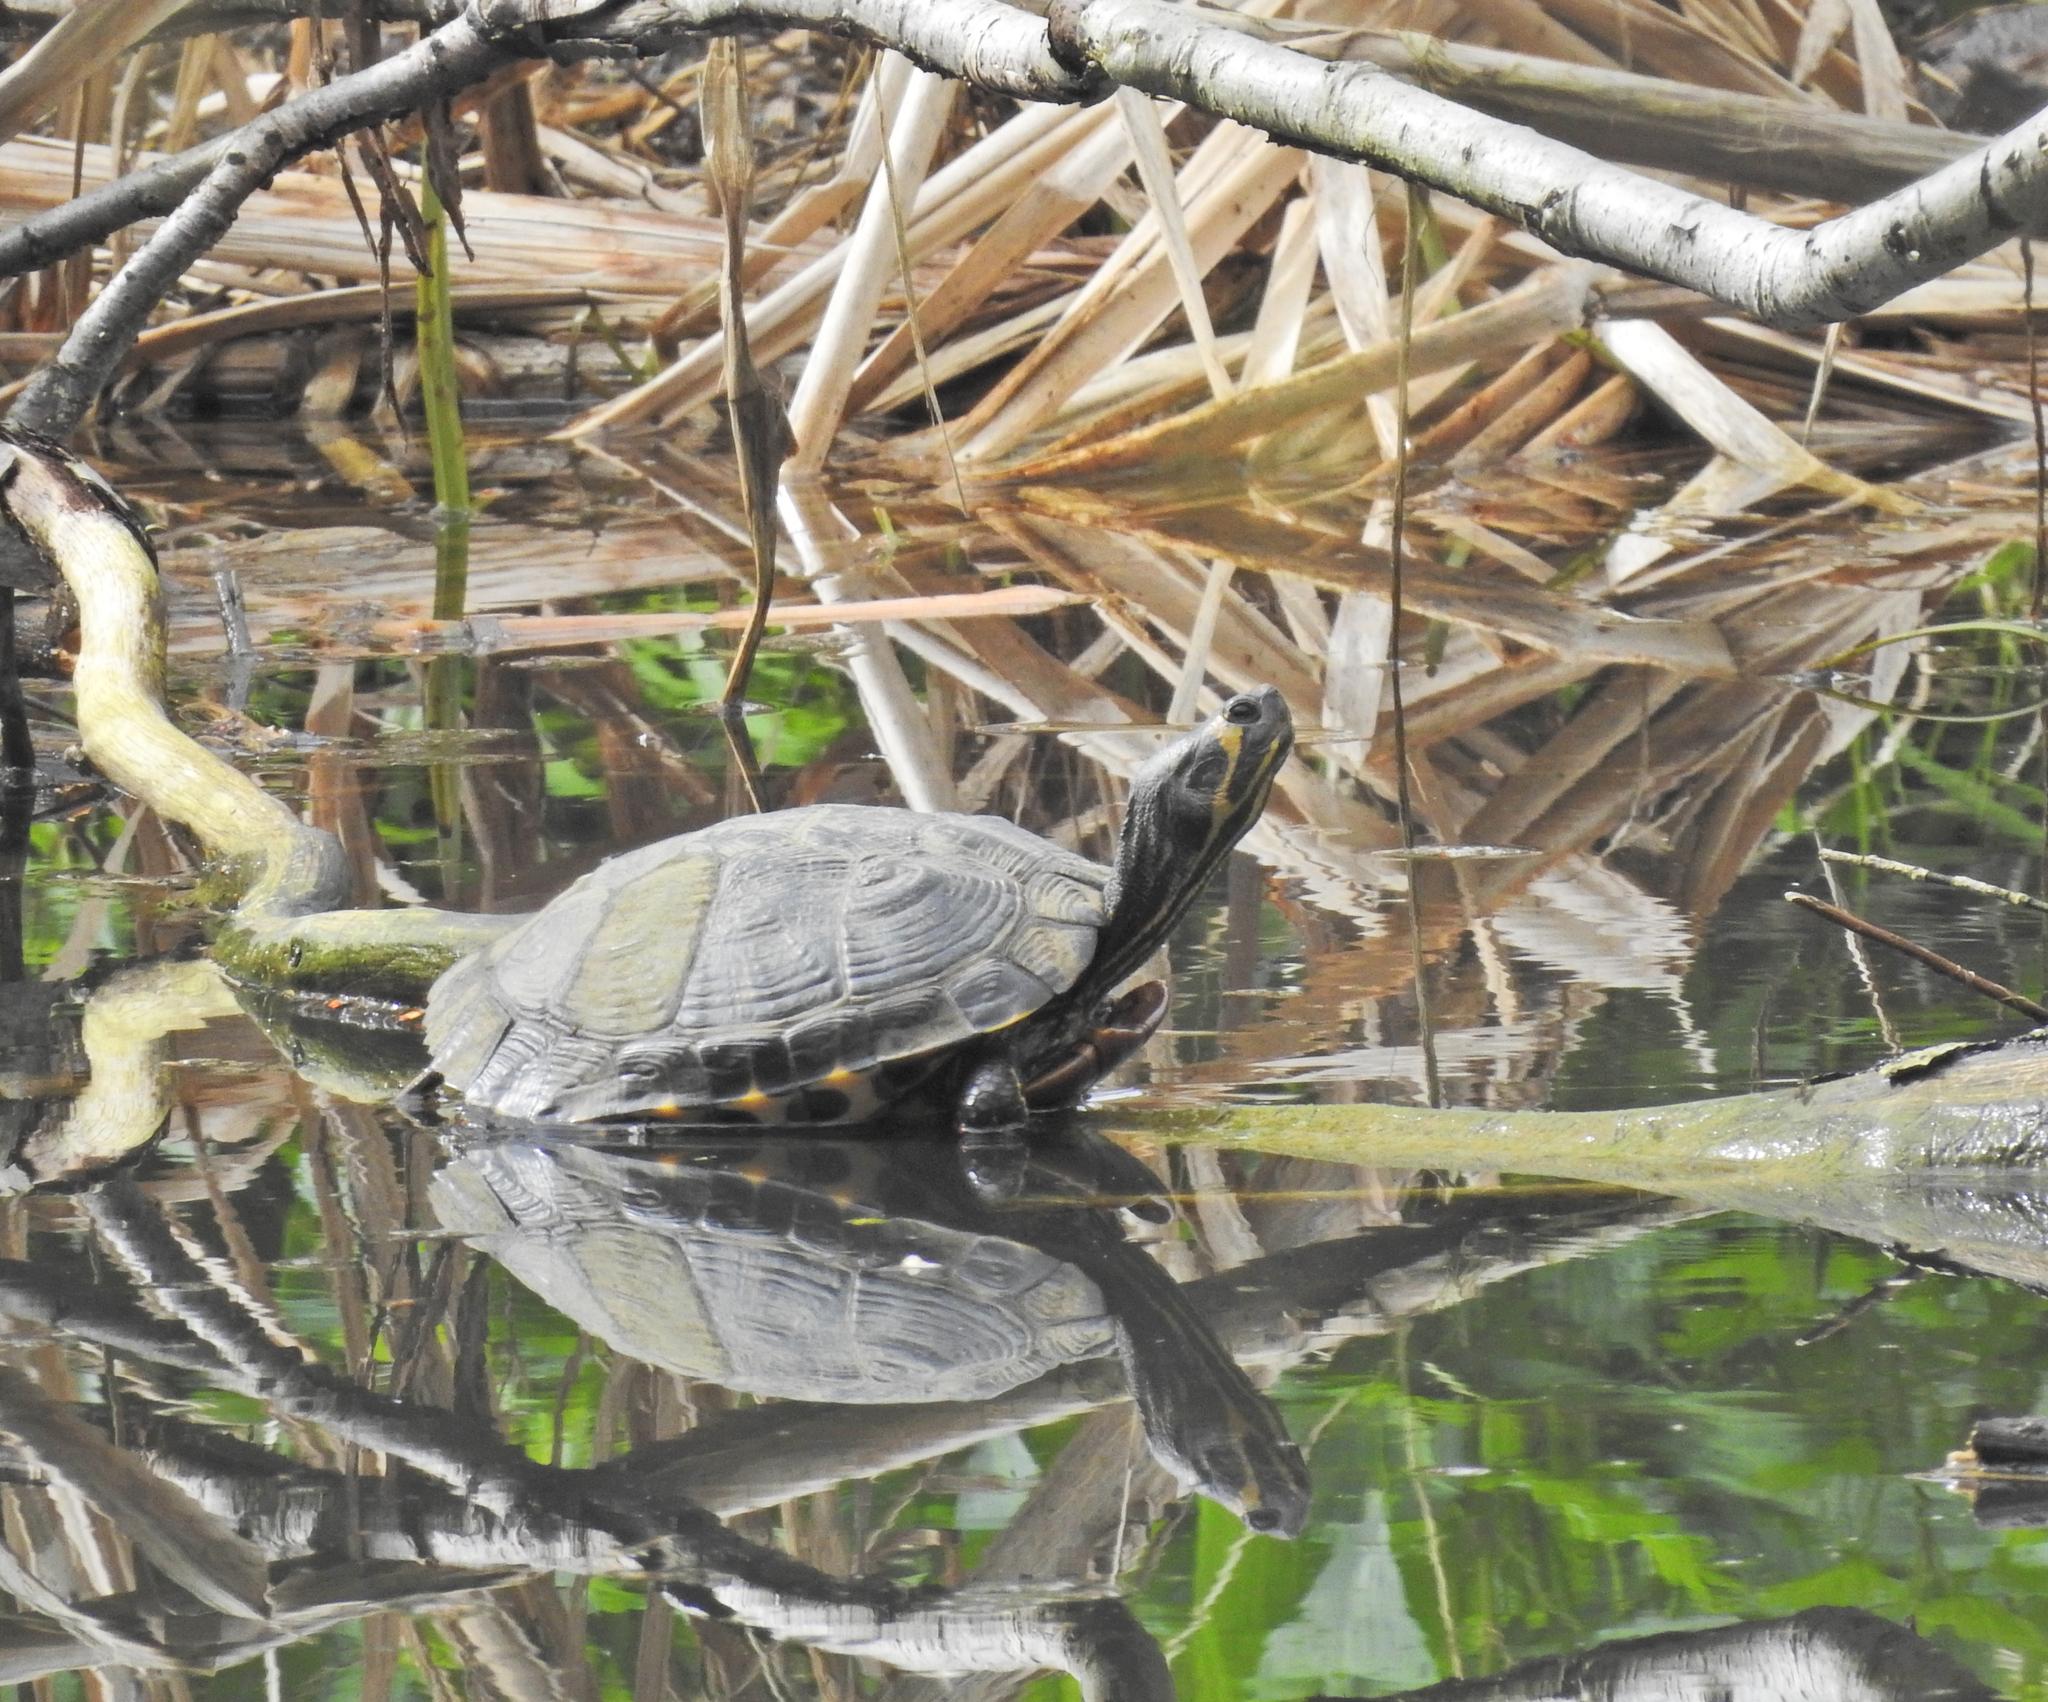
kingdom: Animalia
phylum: Chordata
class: Testudines
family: Emydidae
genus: Trachemys
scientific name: Trachemys scripta
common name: Slider
